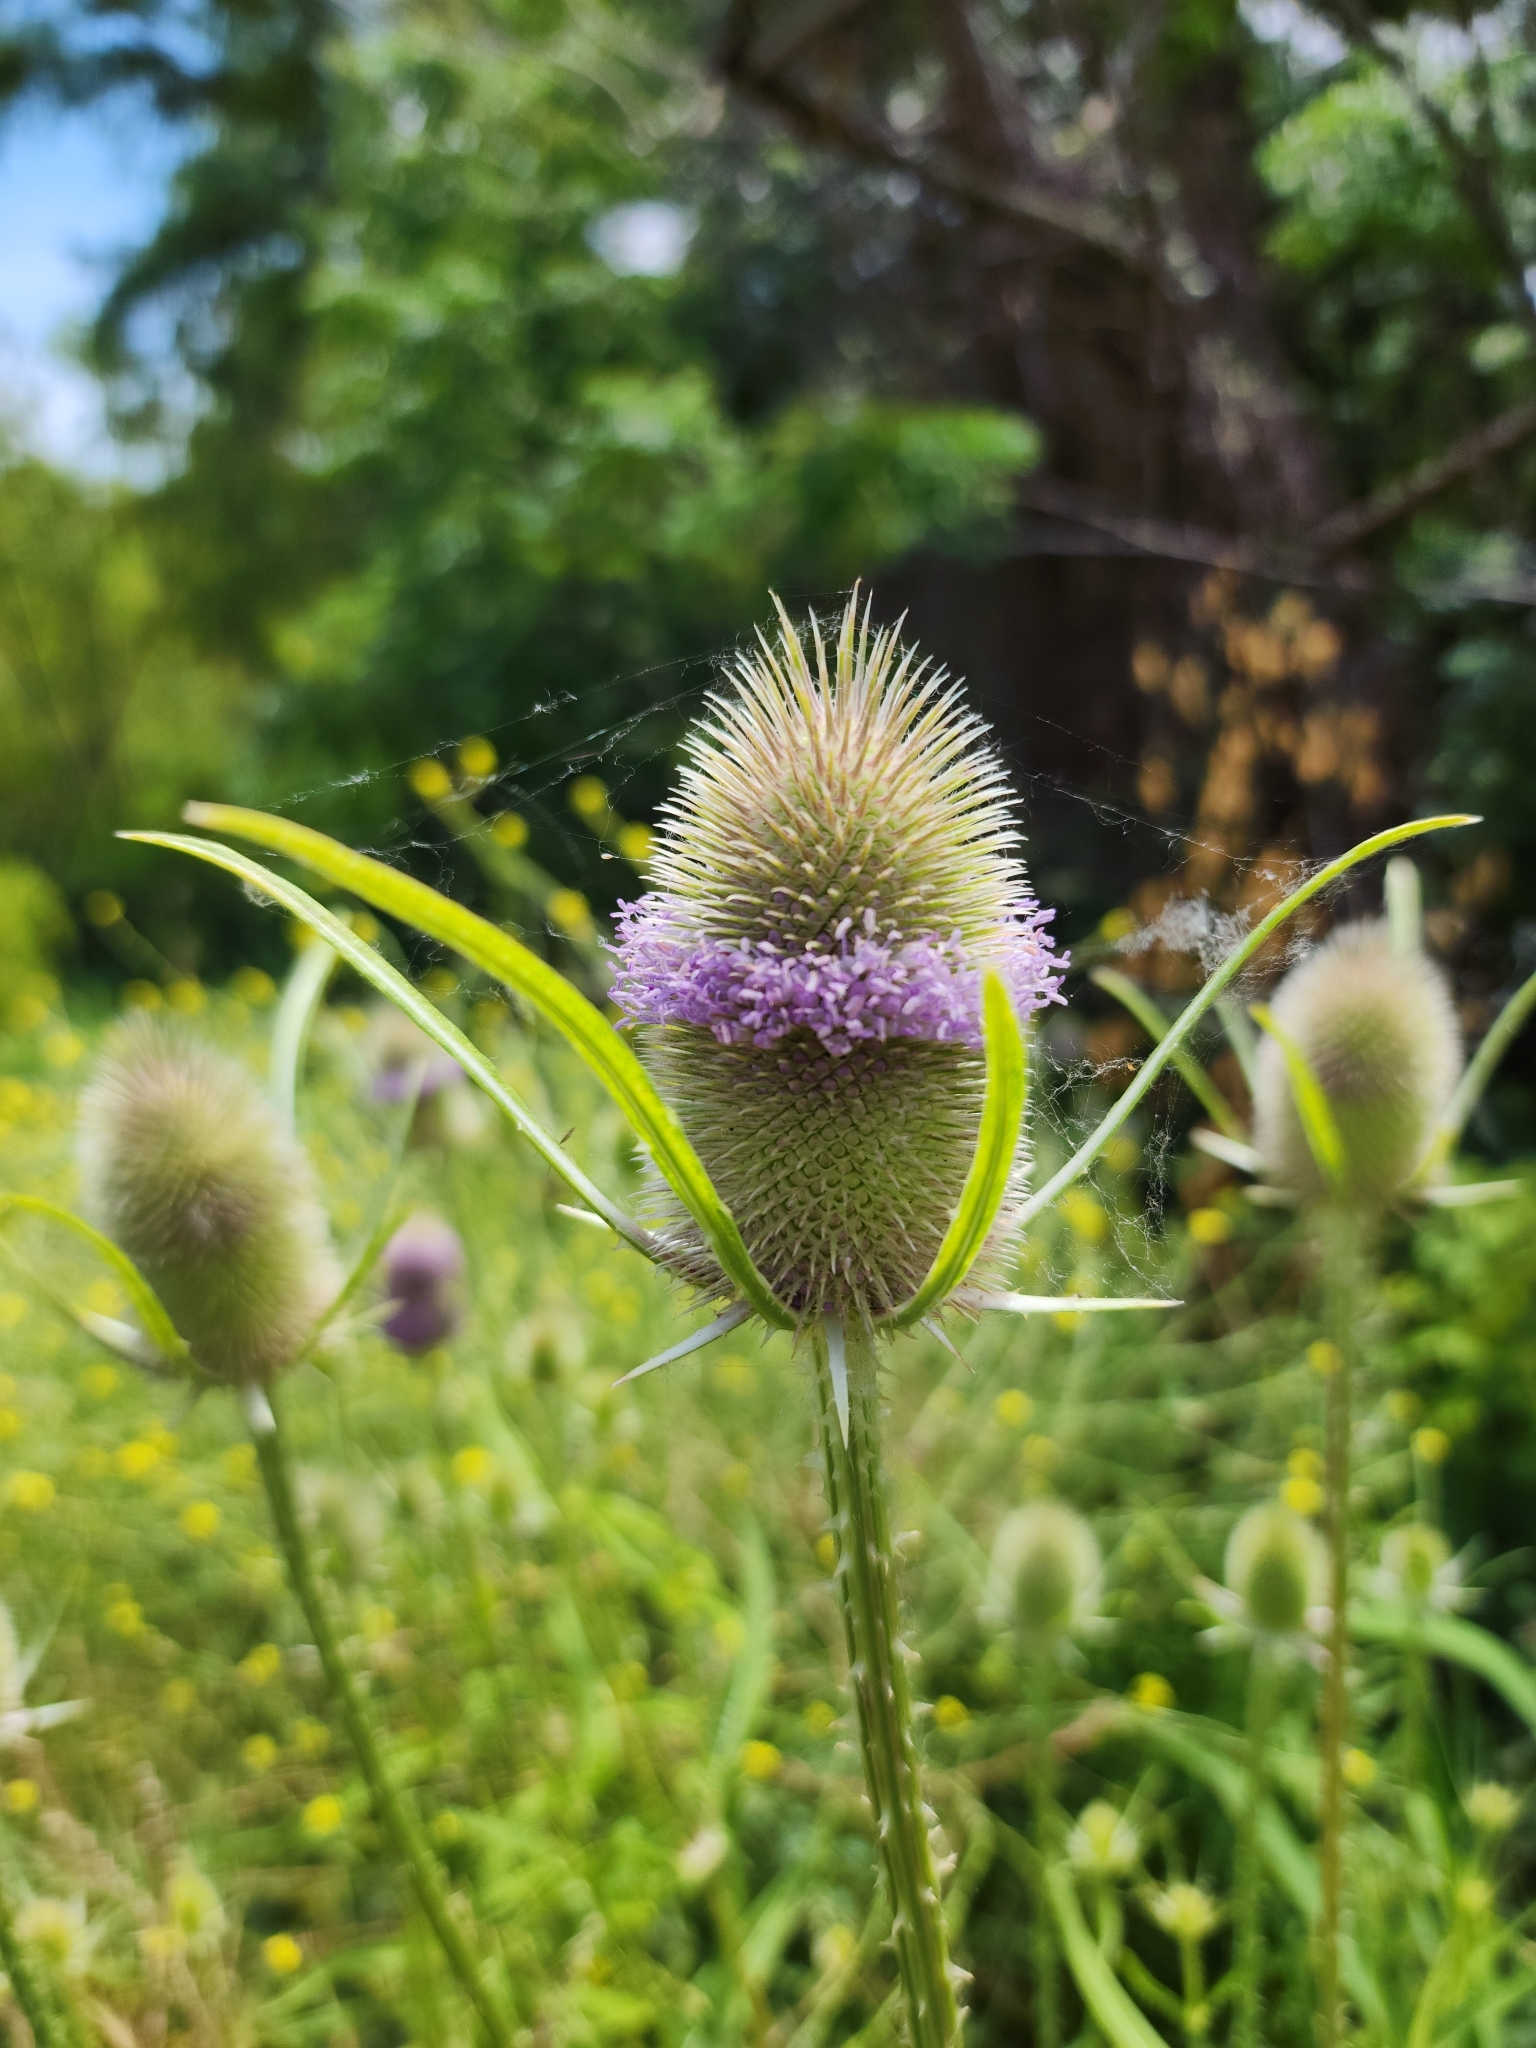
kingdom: Plantae
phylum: Tracheophyta
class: Magnoliopsida
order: Dipsacales
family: Caprifoliaceae
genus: Dipsacus
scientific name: Dipsacus fullonum
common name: Teasel
